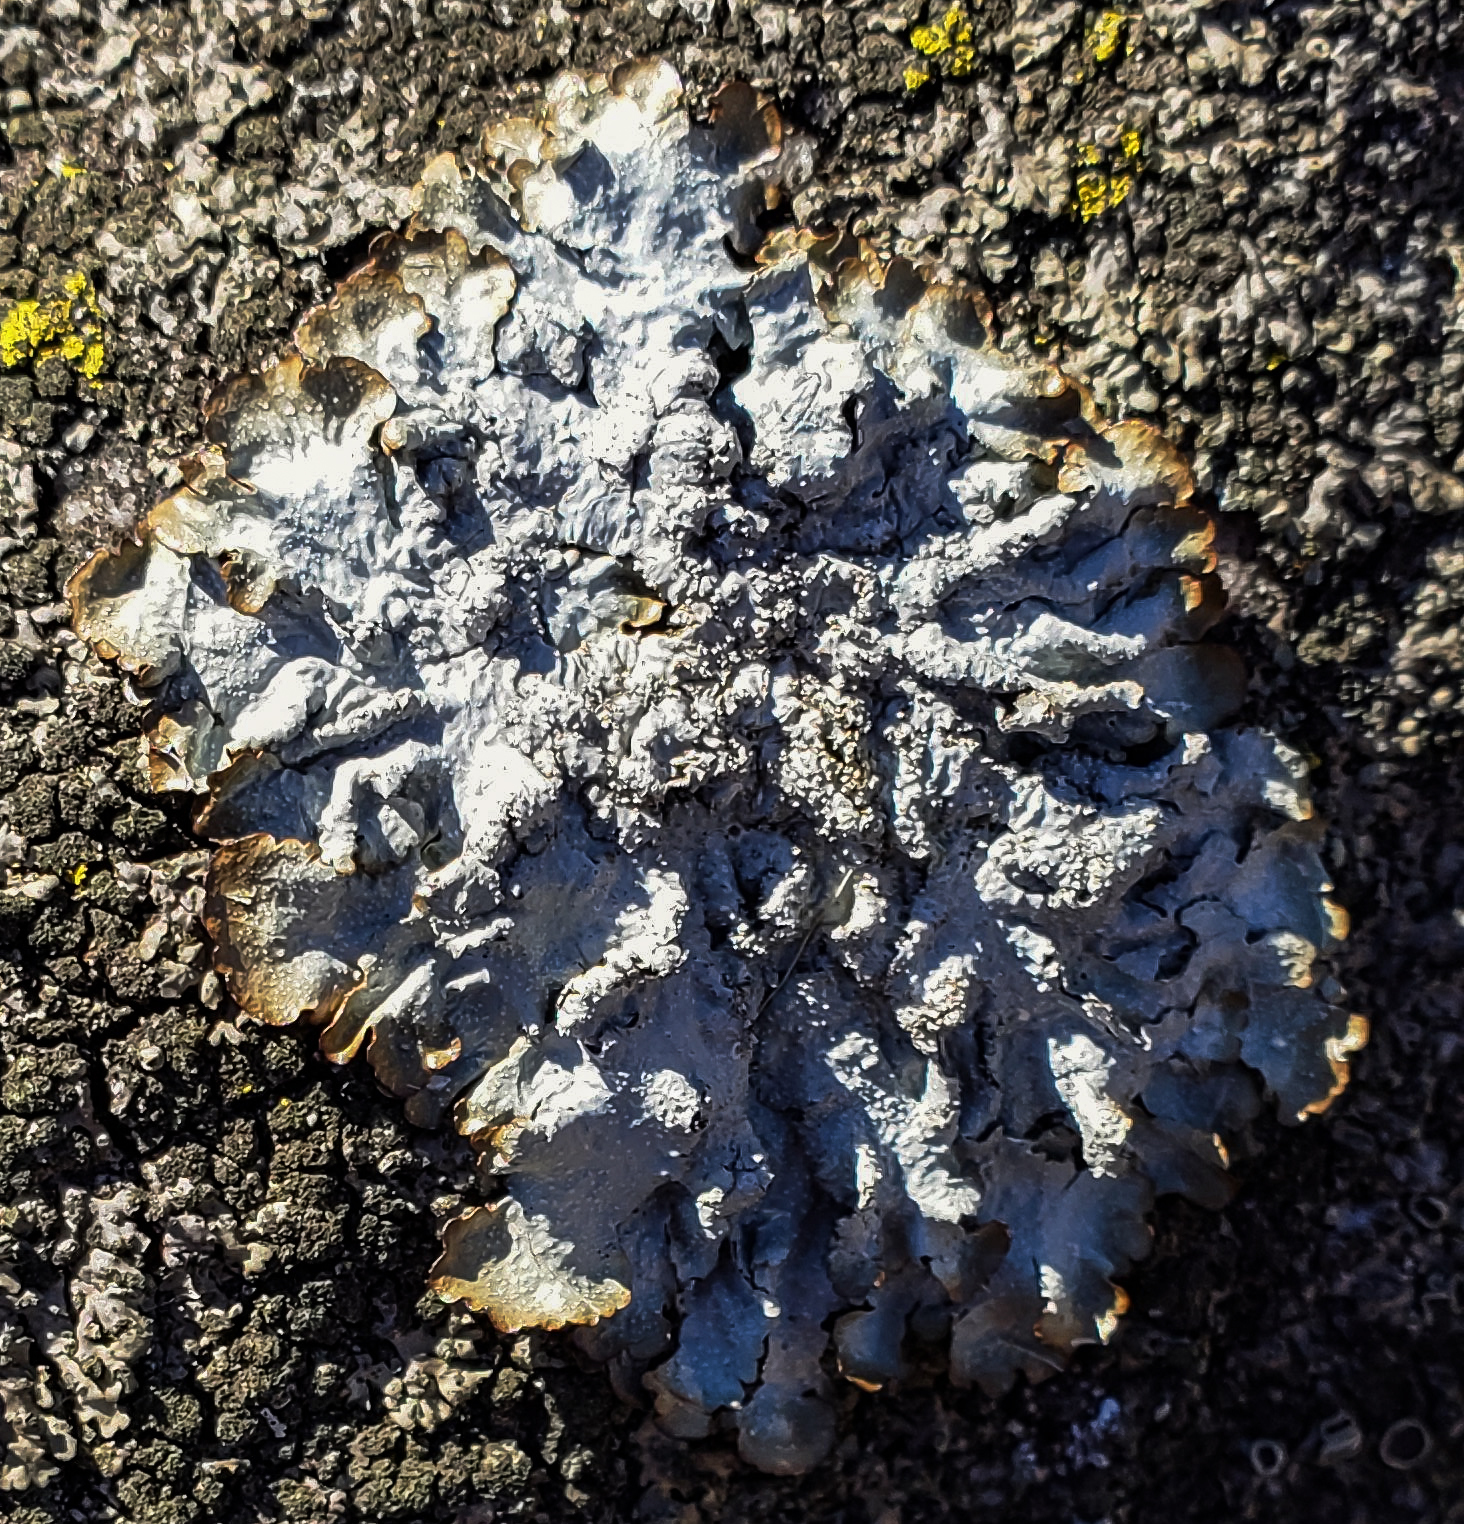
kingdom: Fungi
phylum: Ascomycota
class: Lecanoromycetes
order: Lecanorales
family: Parmeliaceae
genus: Punctelia
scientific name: Punctelia rudecta
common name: Rough speckled shield lichen
